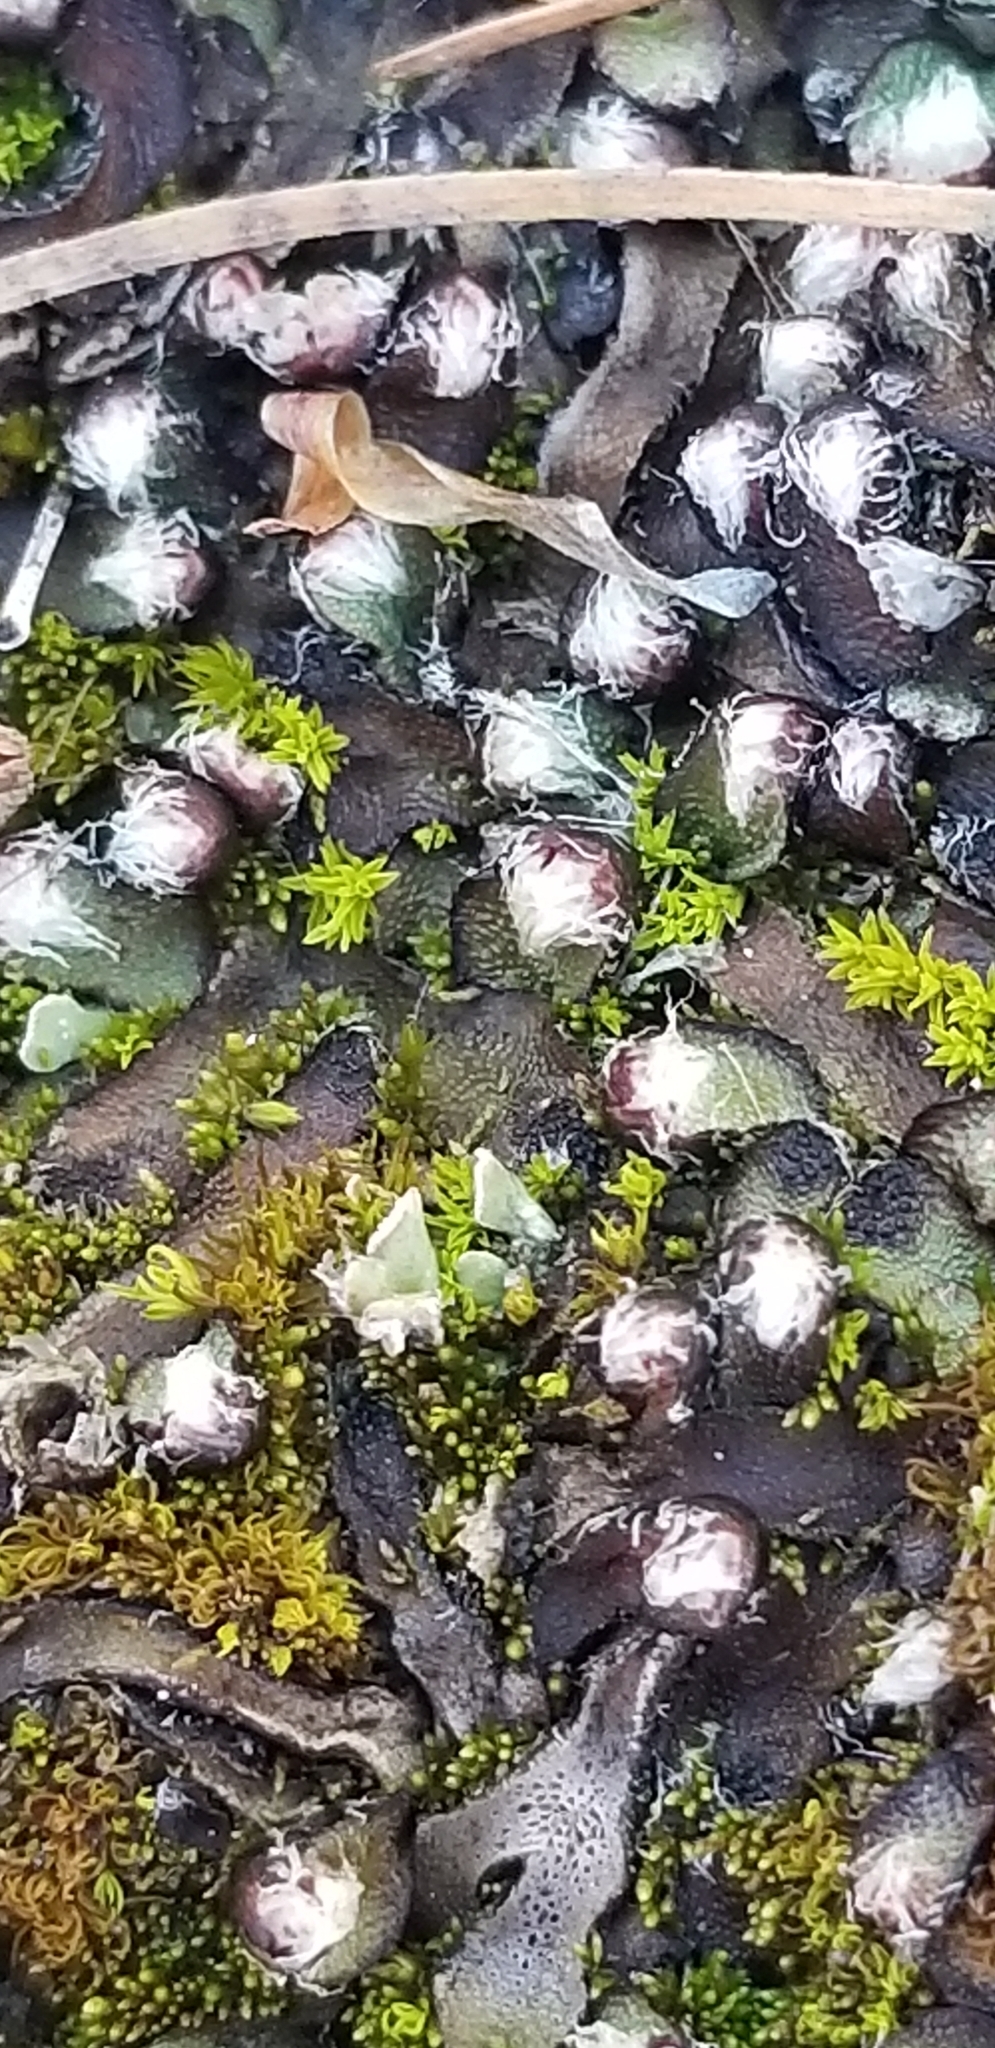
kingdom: Plantae
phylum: Marchantiophyta
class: Marchantiopsida
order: Marchantiales
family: Aytoniaceae
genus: Mannia
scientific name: Mannia fragrans
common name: Fragrant macewort
